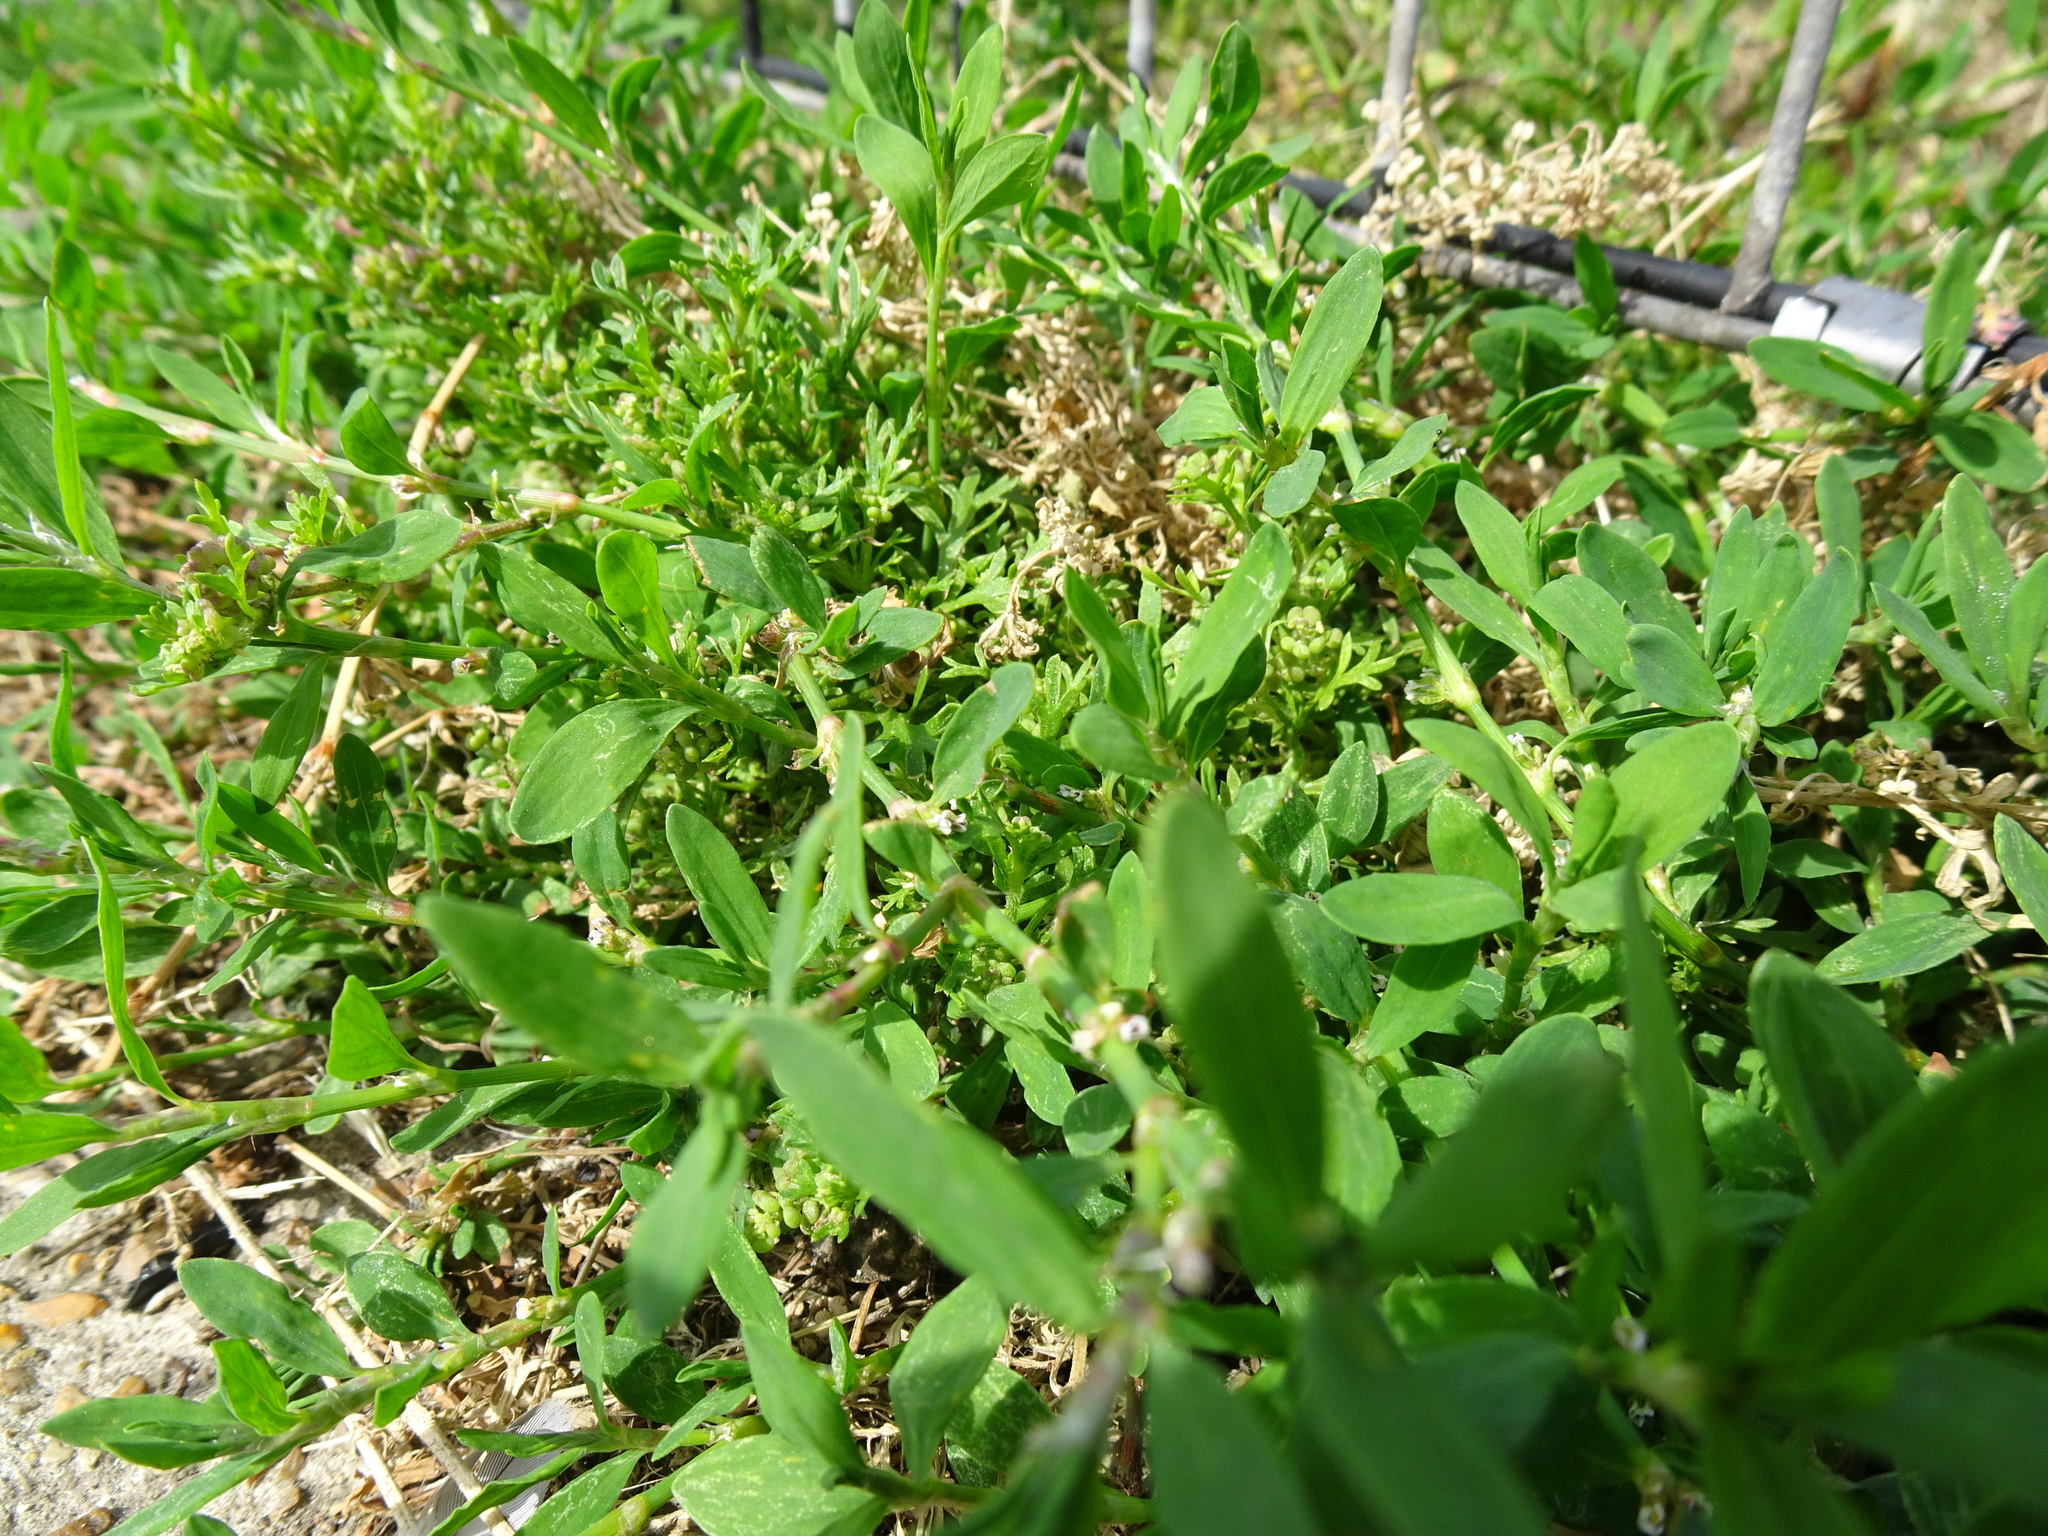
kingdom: Plantae
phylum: Tracheophyta
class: Magnoliopsida
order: Caryophyllales
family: Polygonaceae
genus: Polygonum
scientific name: Polygonum aviculare
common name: Prostrate knotweed
